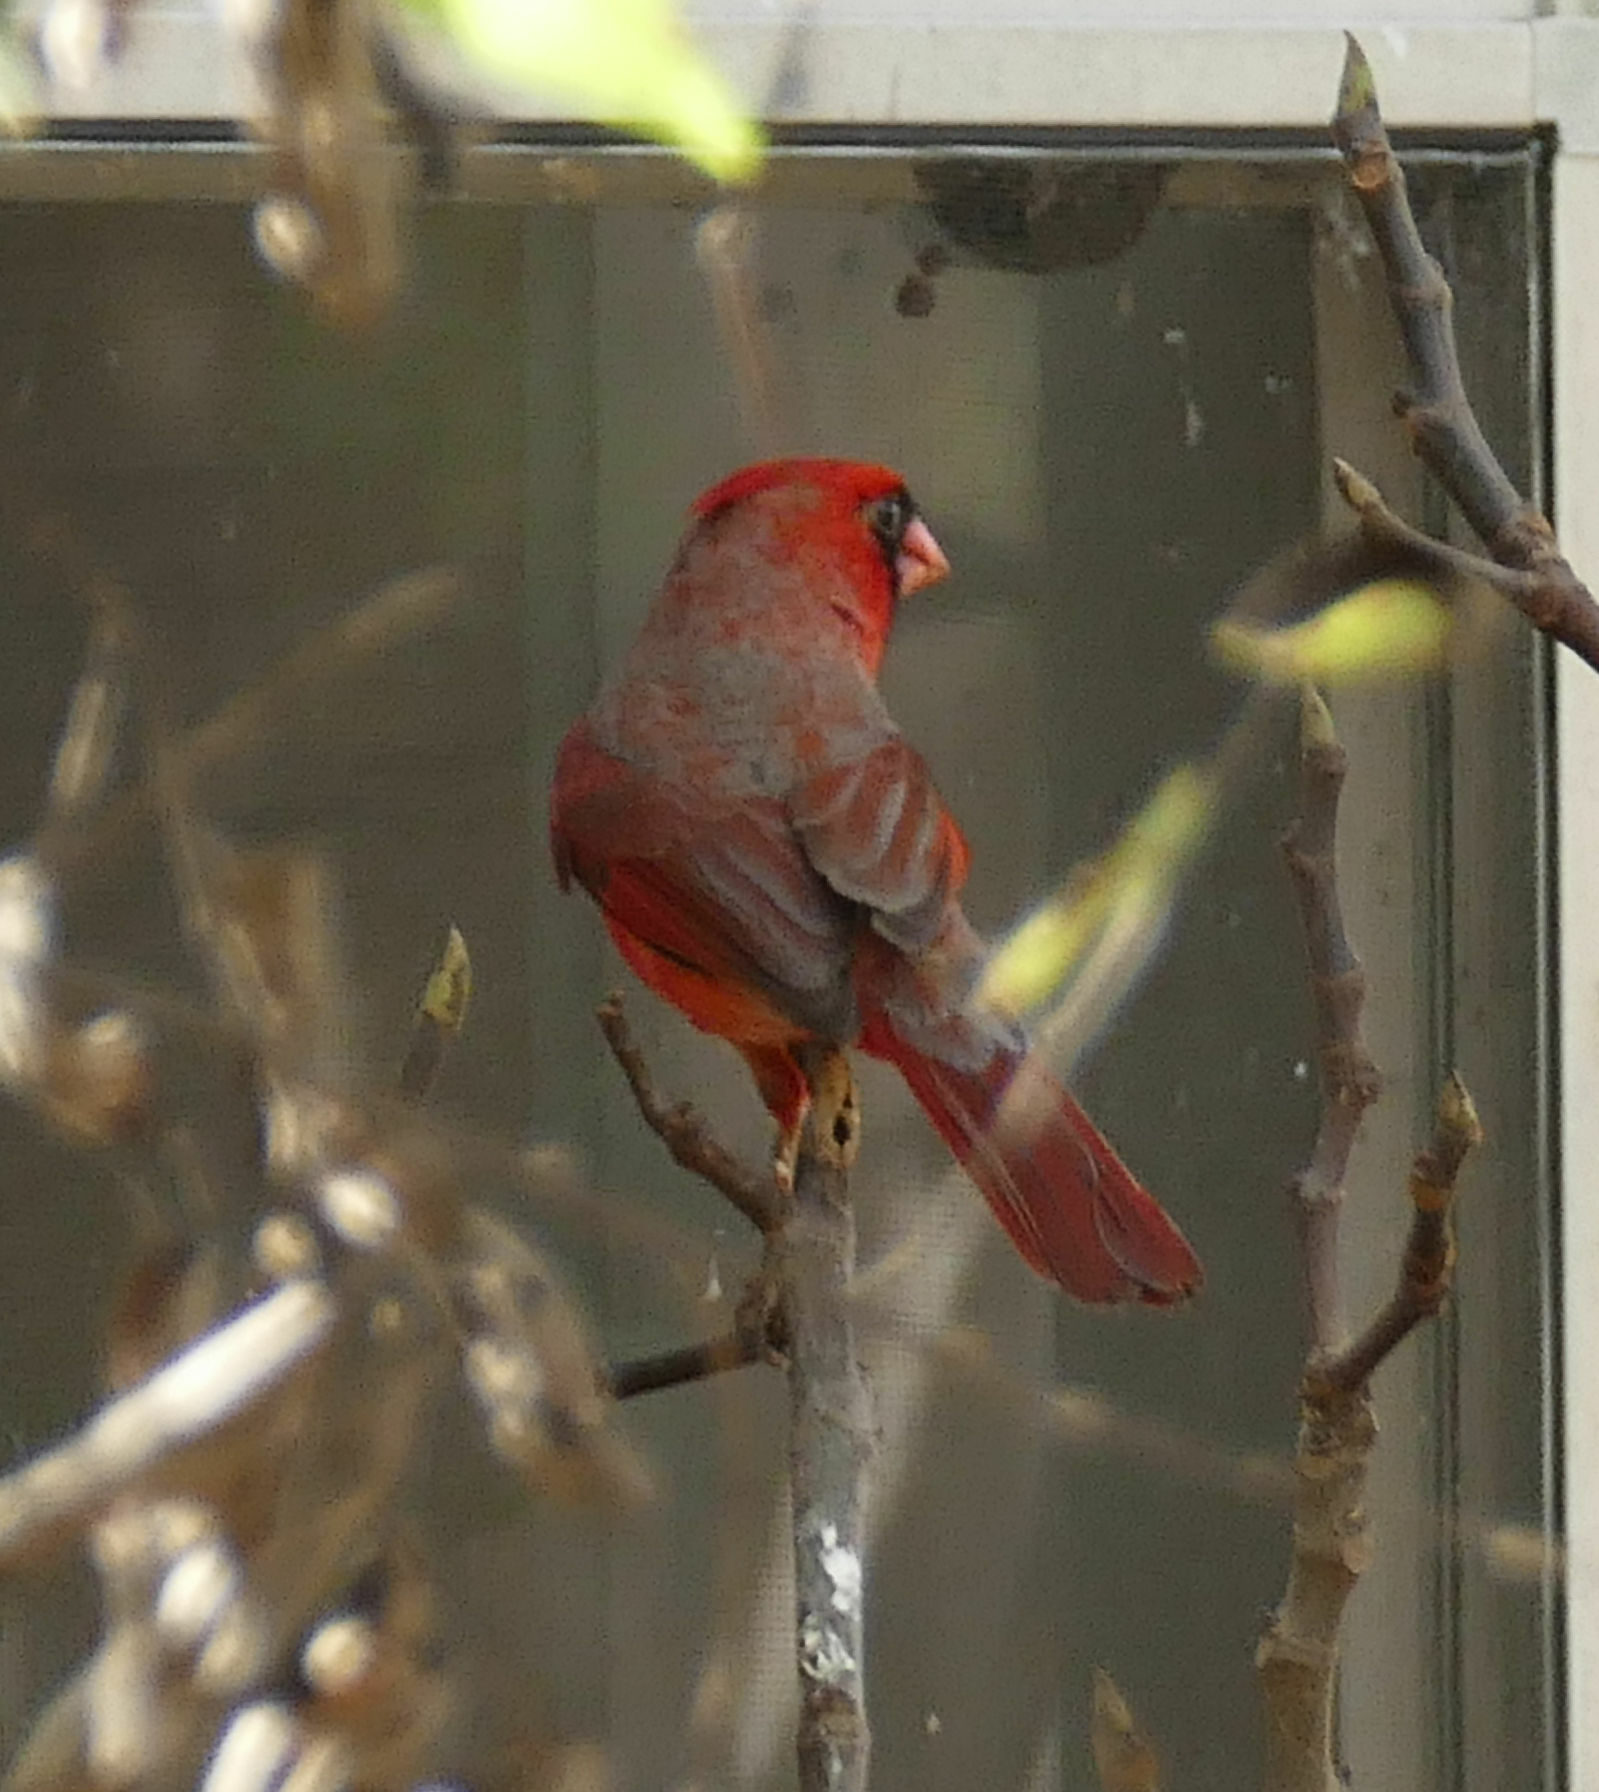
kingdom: Animalia
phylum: Chordata
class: Aves
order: Passeriformes
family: Cardinalidae
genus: Cardinalis
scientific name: Cardinalis cardinalis
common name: Northern cardinal
